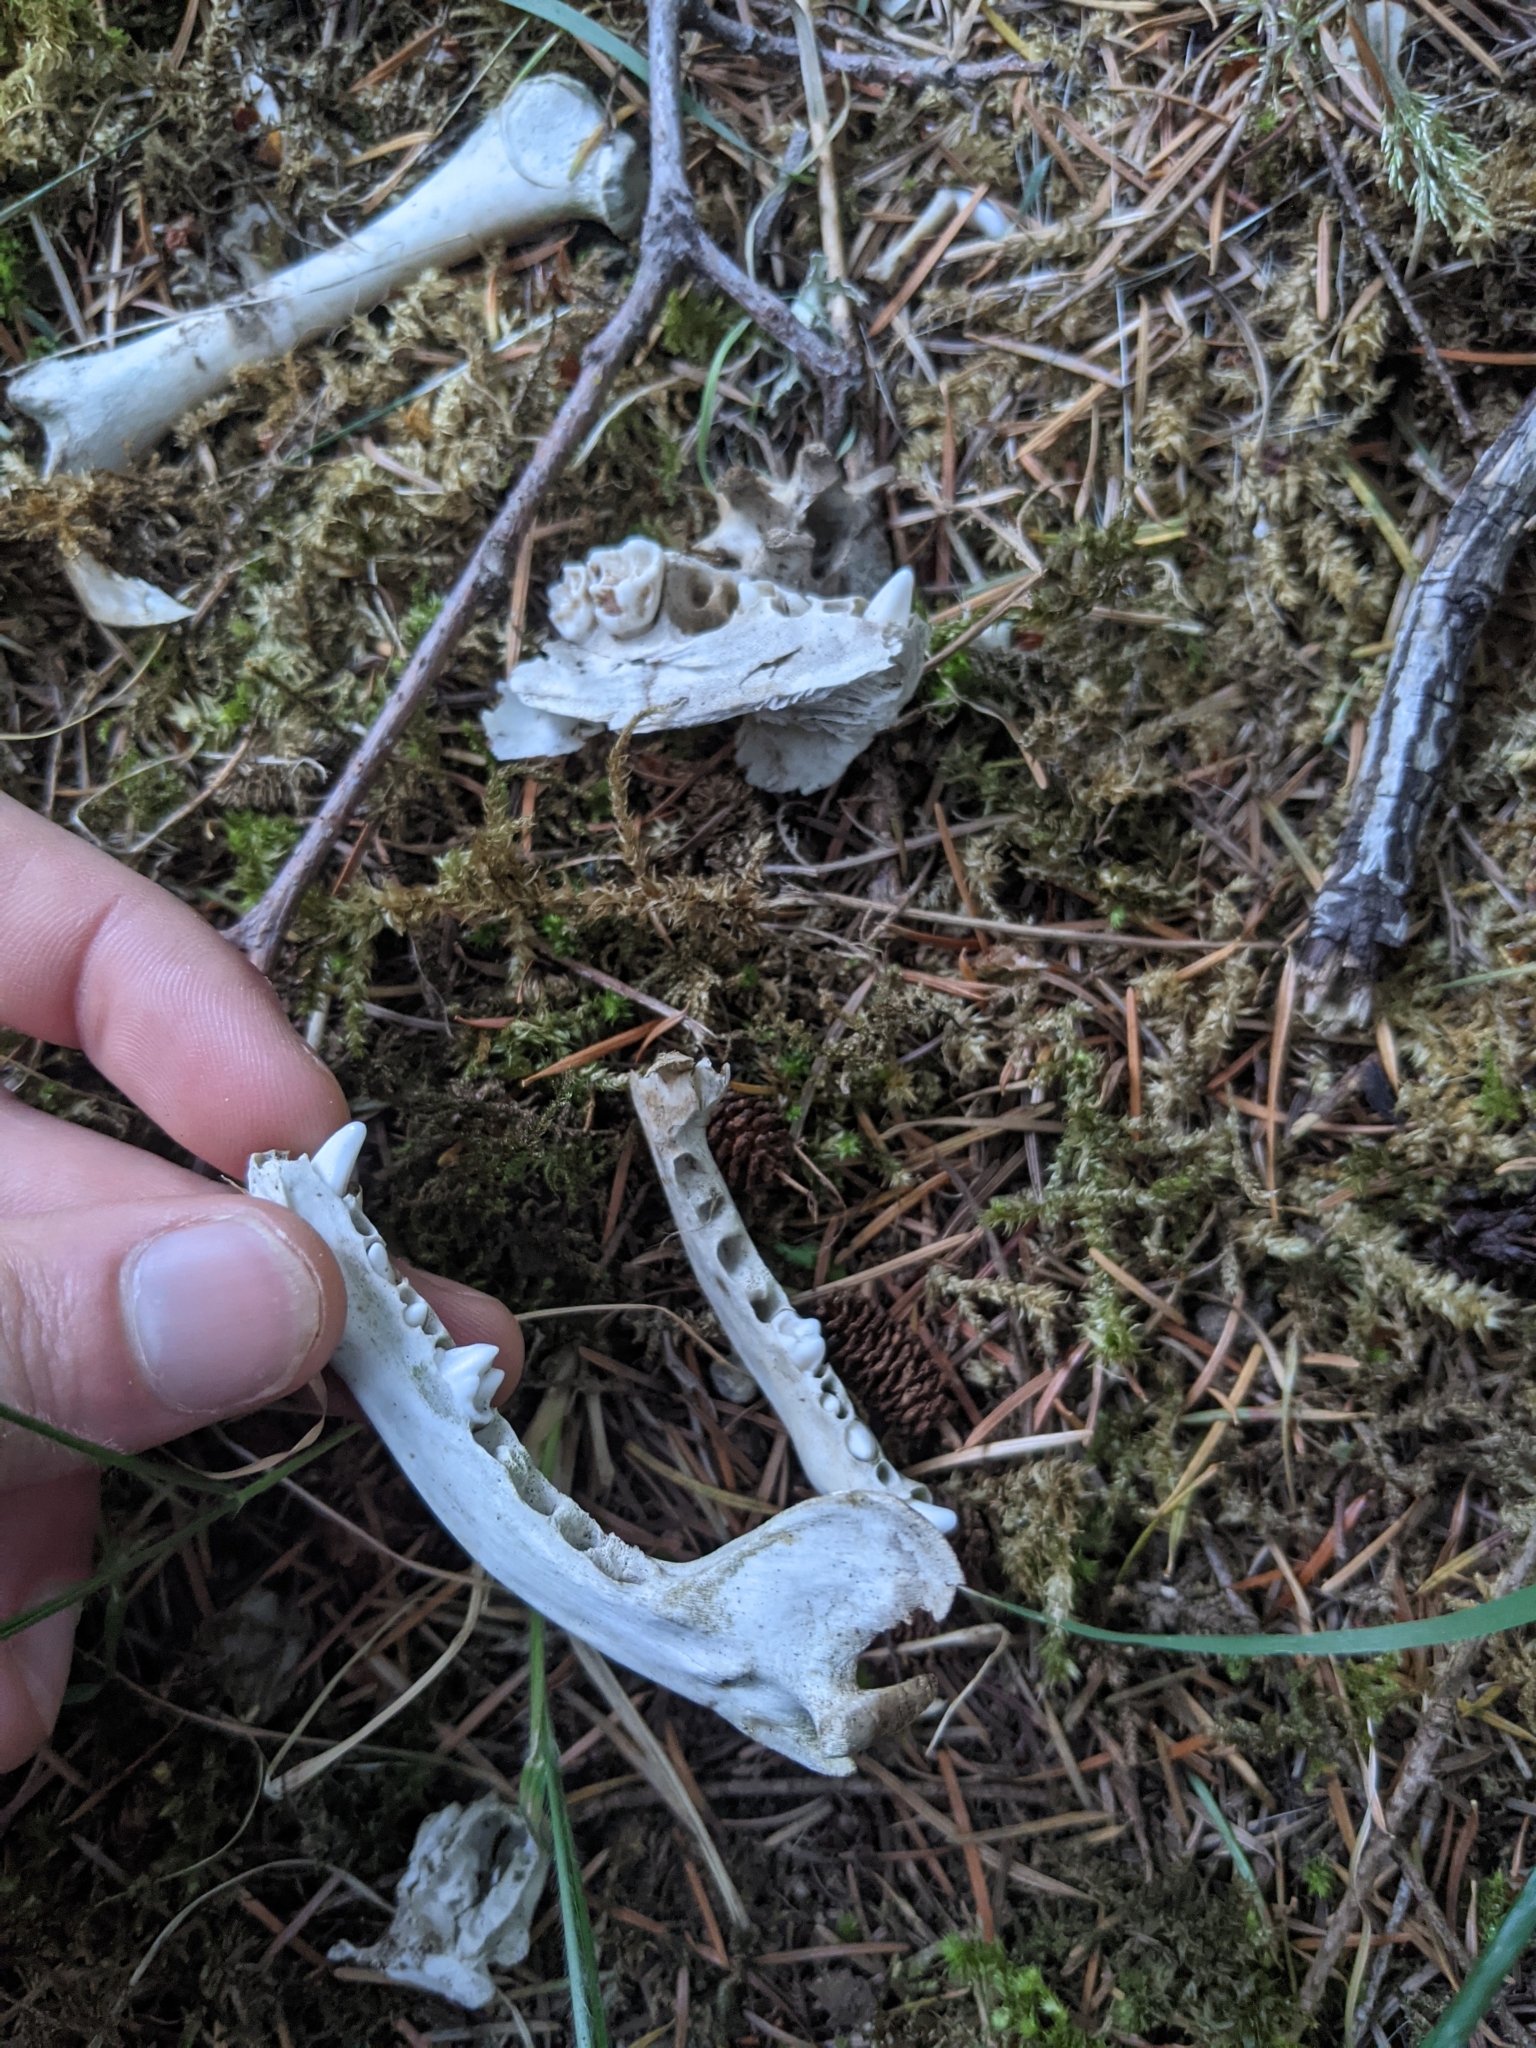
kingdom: Animalia
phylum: Chordata
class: Mammalia
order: Carnivora
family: Procyonidae
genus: Procyon
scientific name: Procyon lotor
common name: Raccoon
